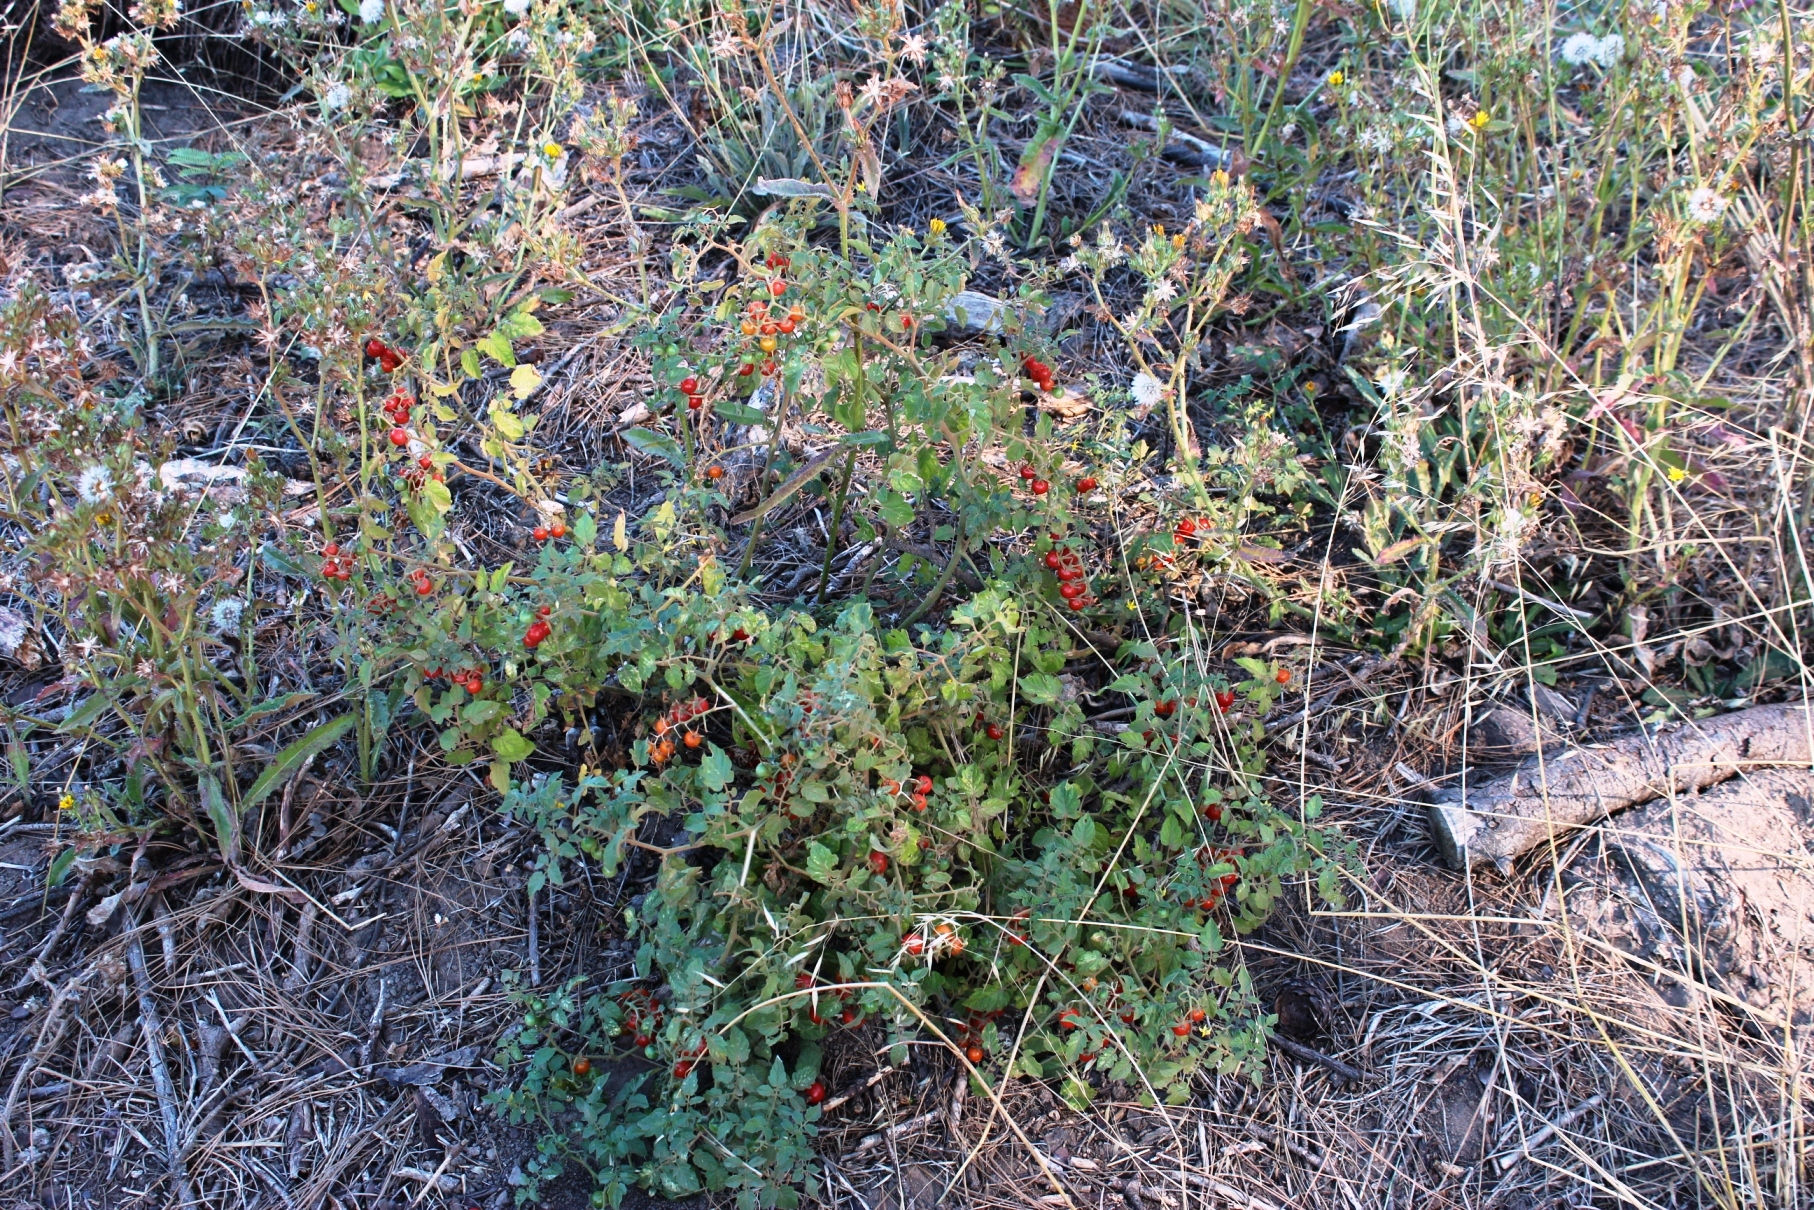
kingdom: Plantae
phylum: Tracheophyta
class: Magnoliopsida
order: Solanales
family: Solanaceae
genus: Solanum
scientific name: Solanum lycopersicum
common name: Garden tomato
